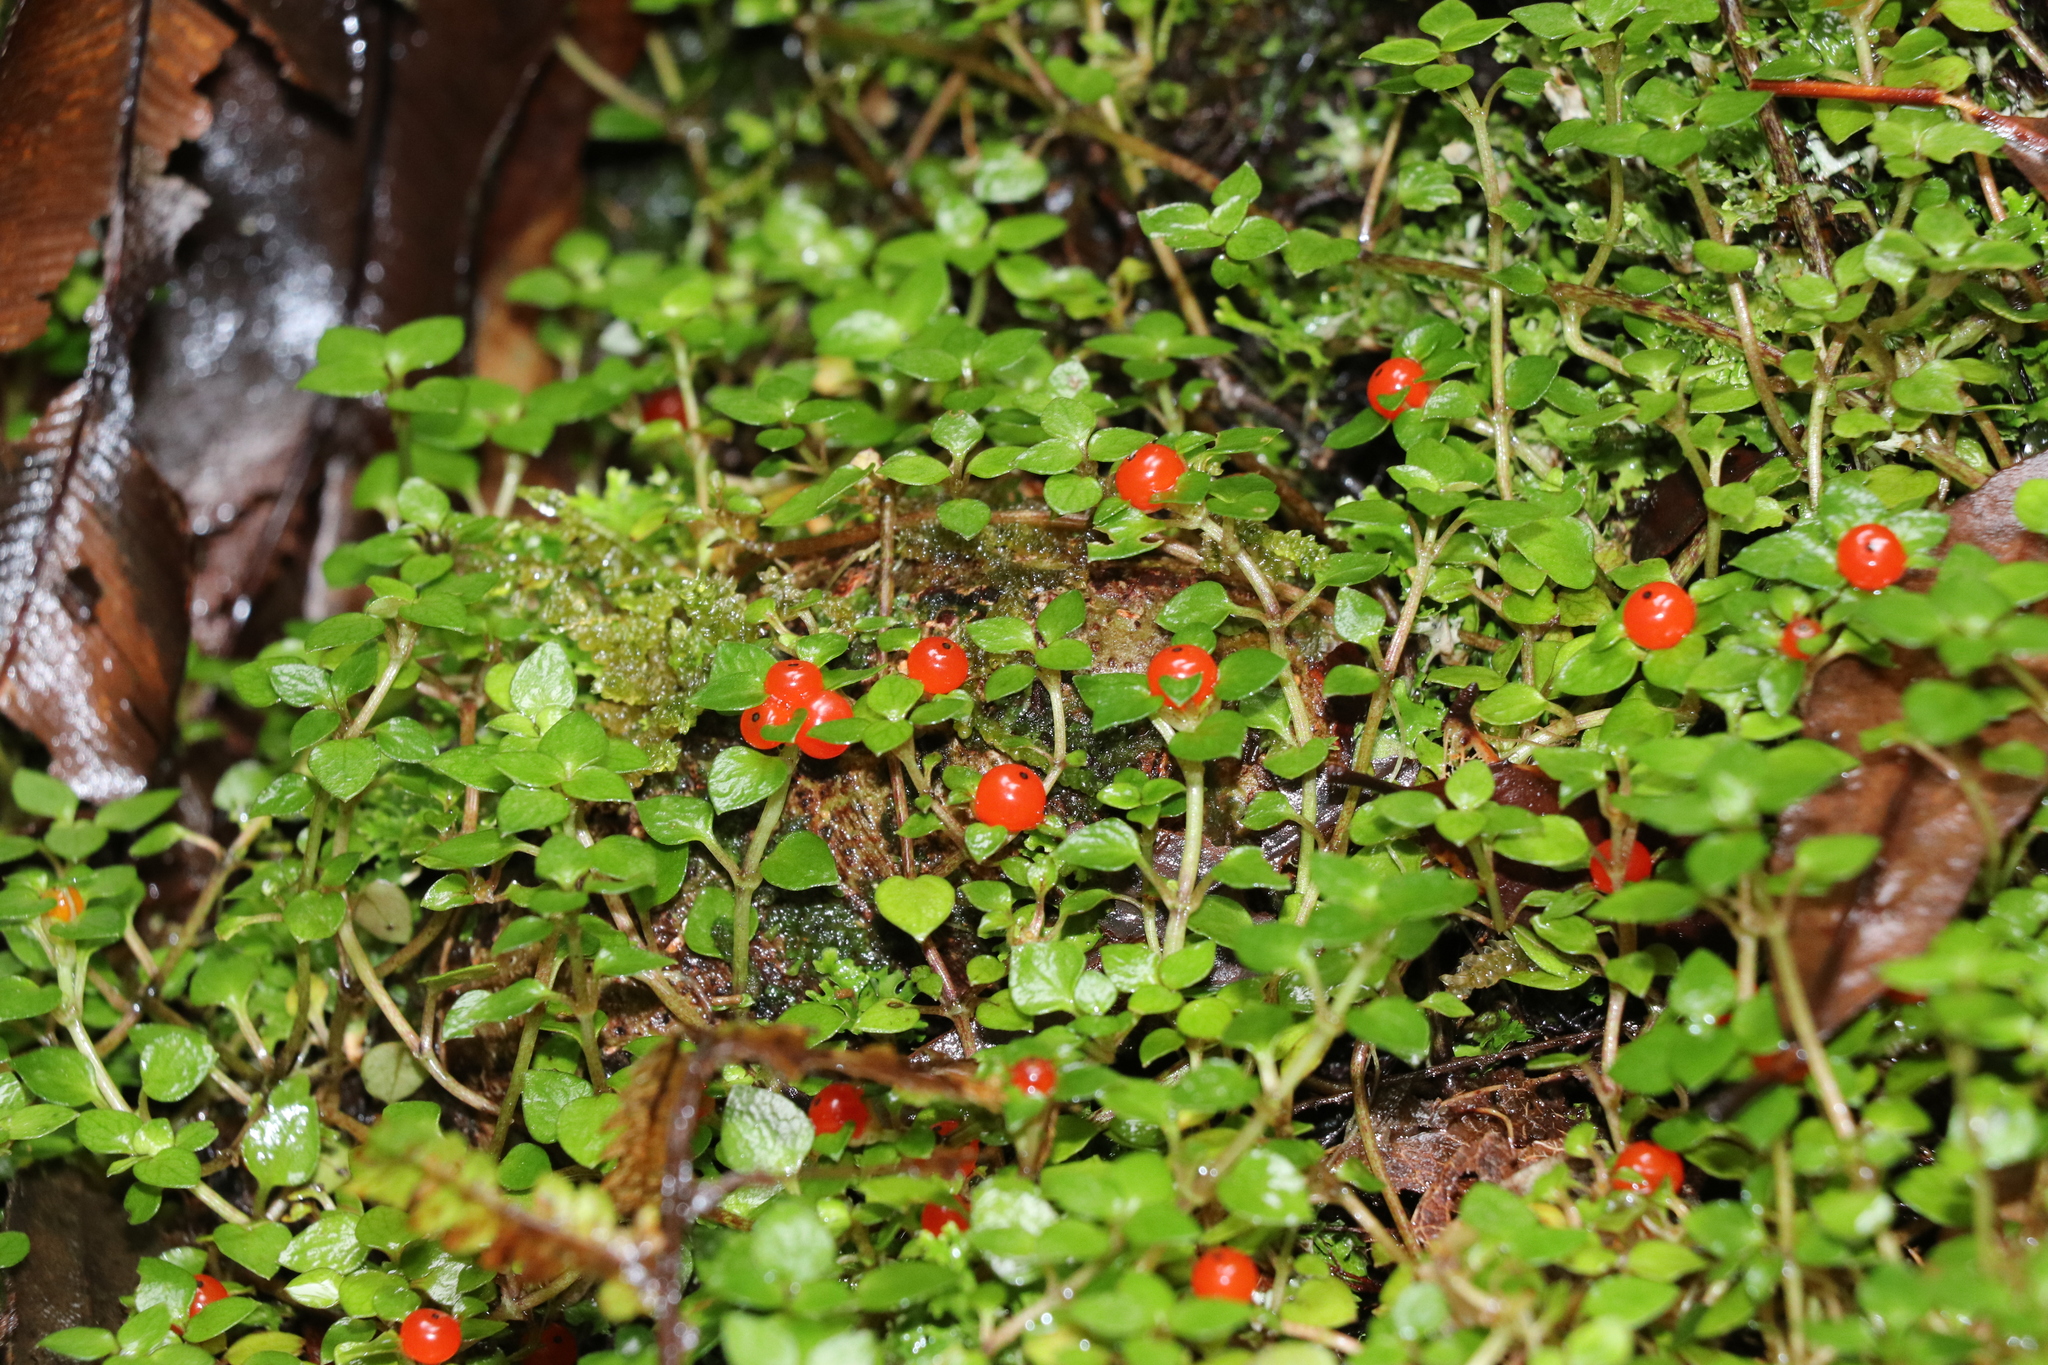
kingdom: Plantae
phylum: Tracheophyta
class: Magnoliopsida
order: Gentianales
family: Rubiaceae
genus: Nertera
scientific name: Nertera granadensis
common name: Beadplant
